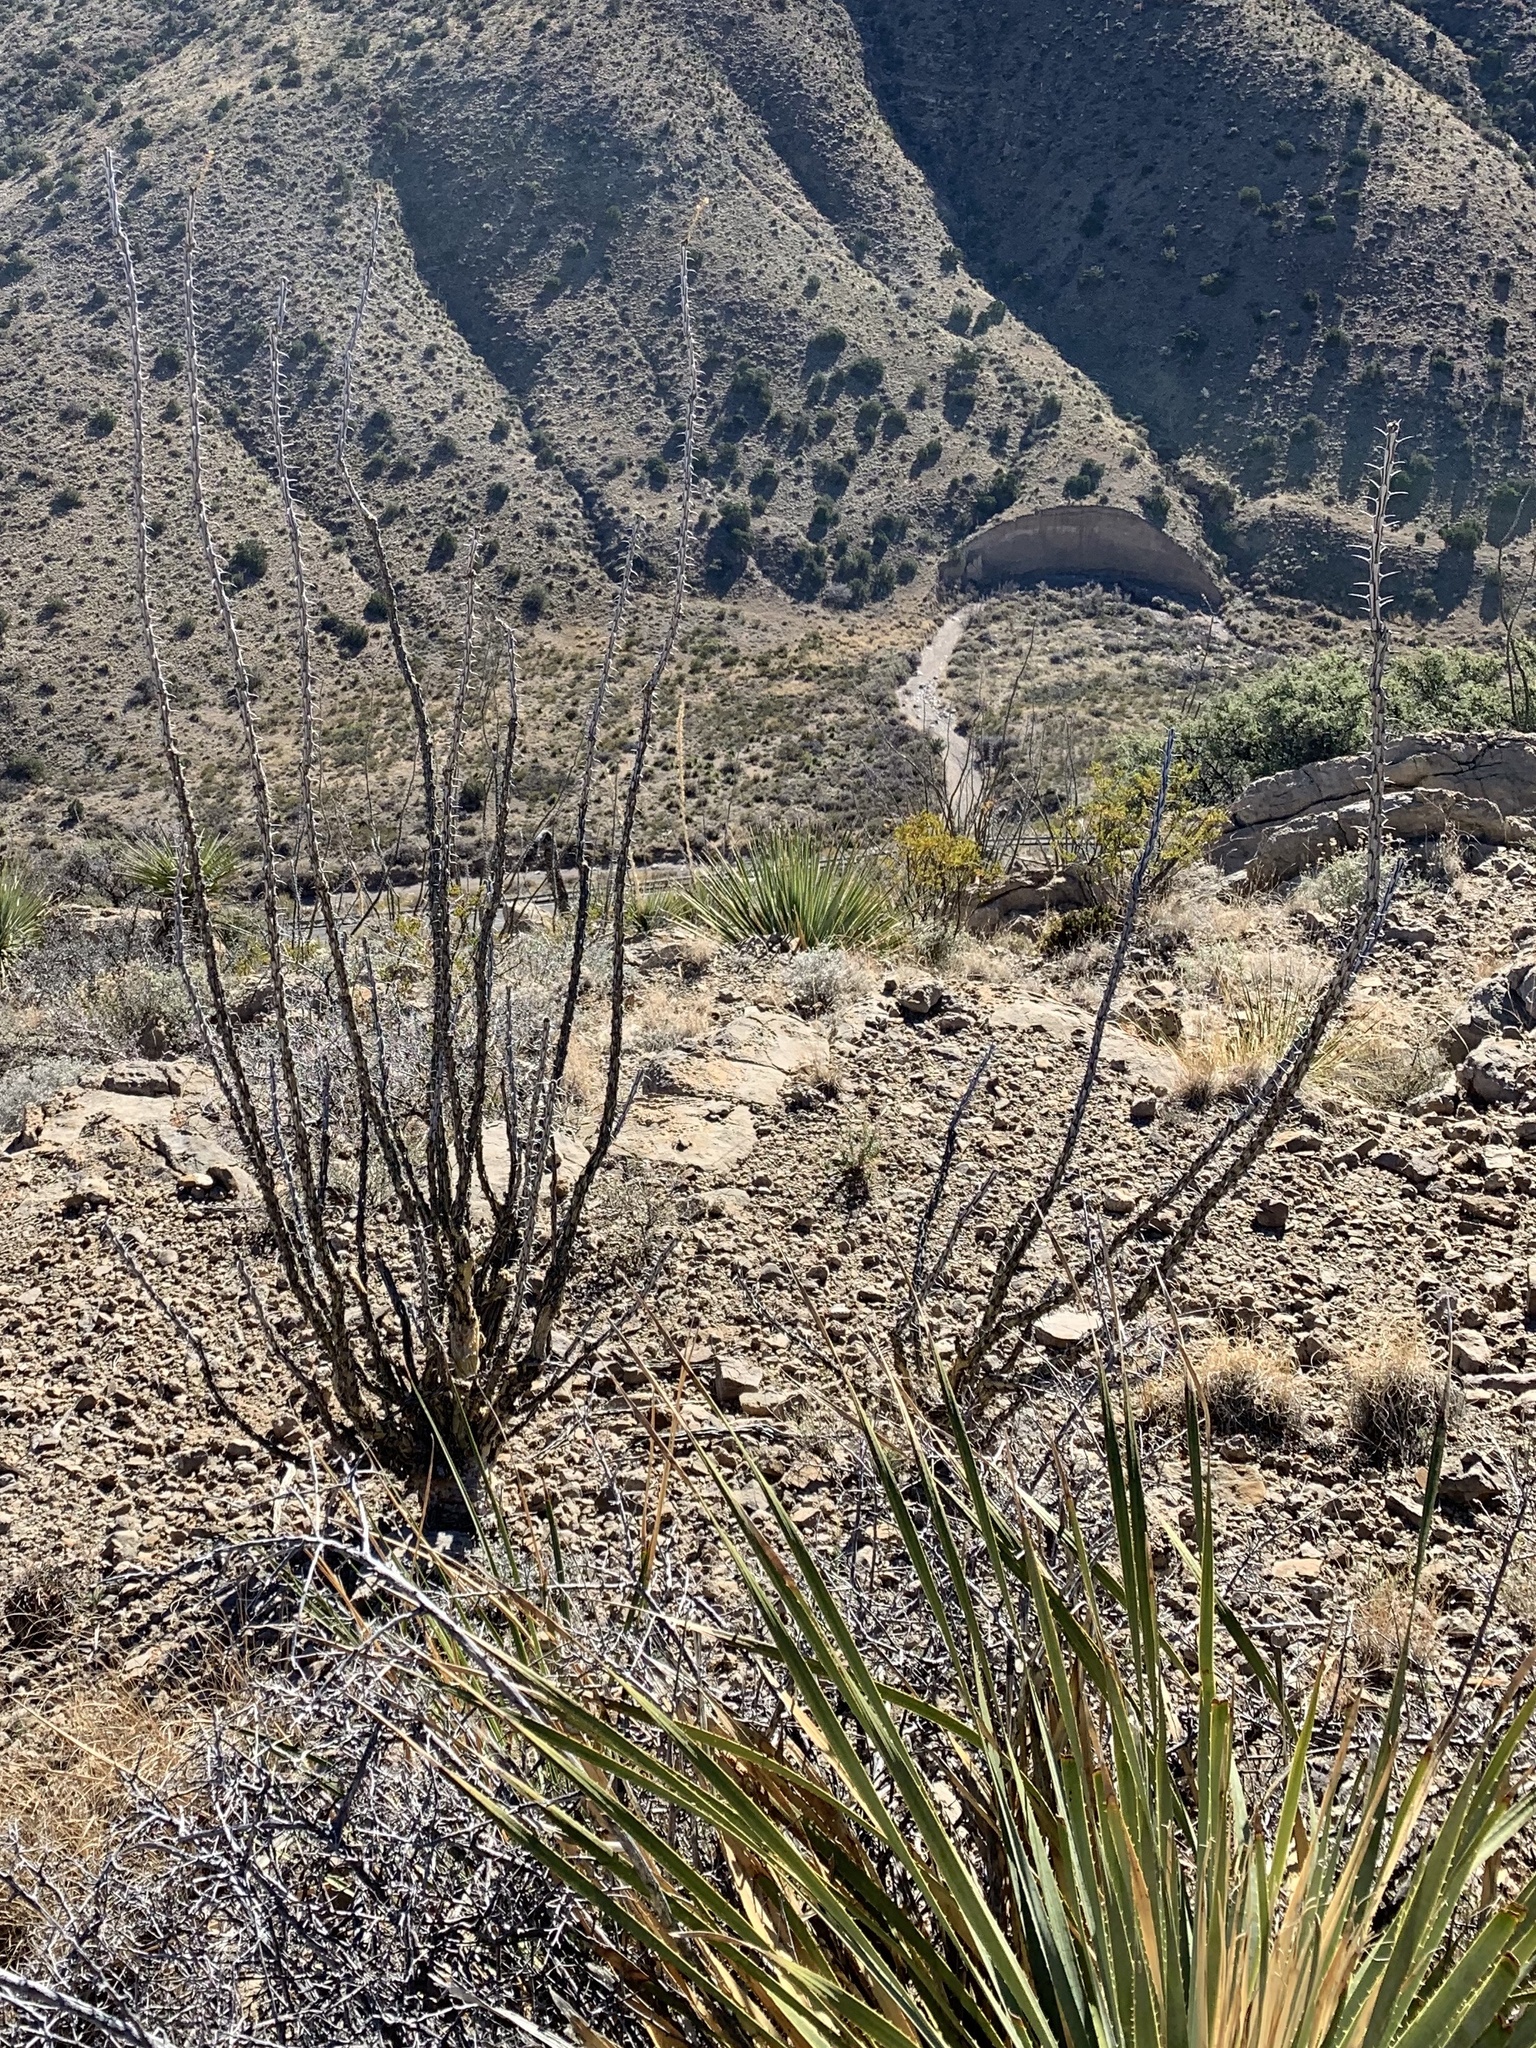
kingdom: Plantae
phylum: Tracheophyta
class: Magnoliopsida
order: Ericales
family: Fouquieriaceae
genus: Fouquieria
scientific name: Fouquieria splendens
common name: Vine-cactus
